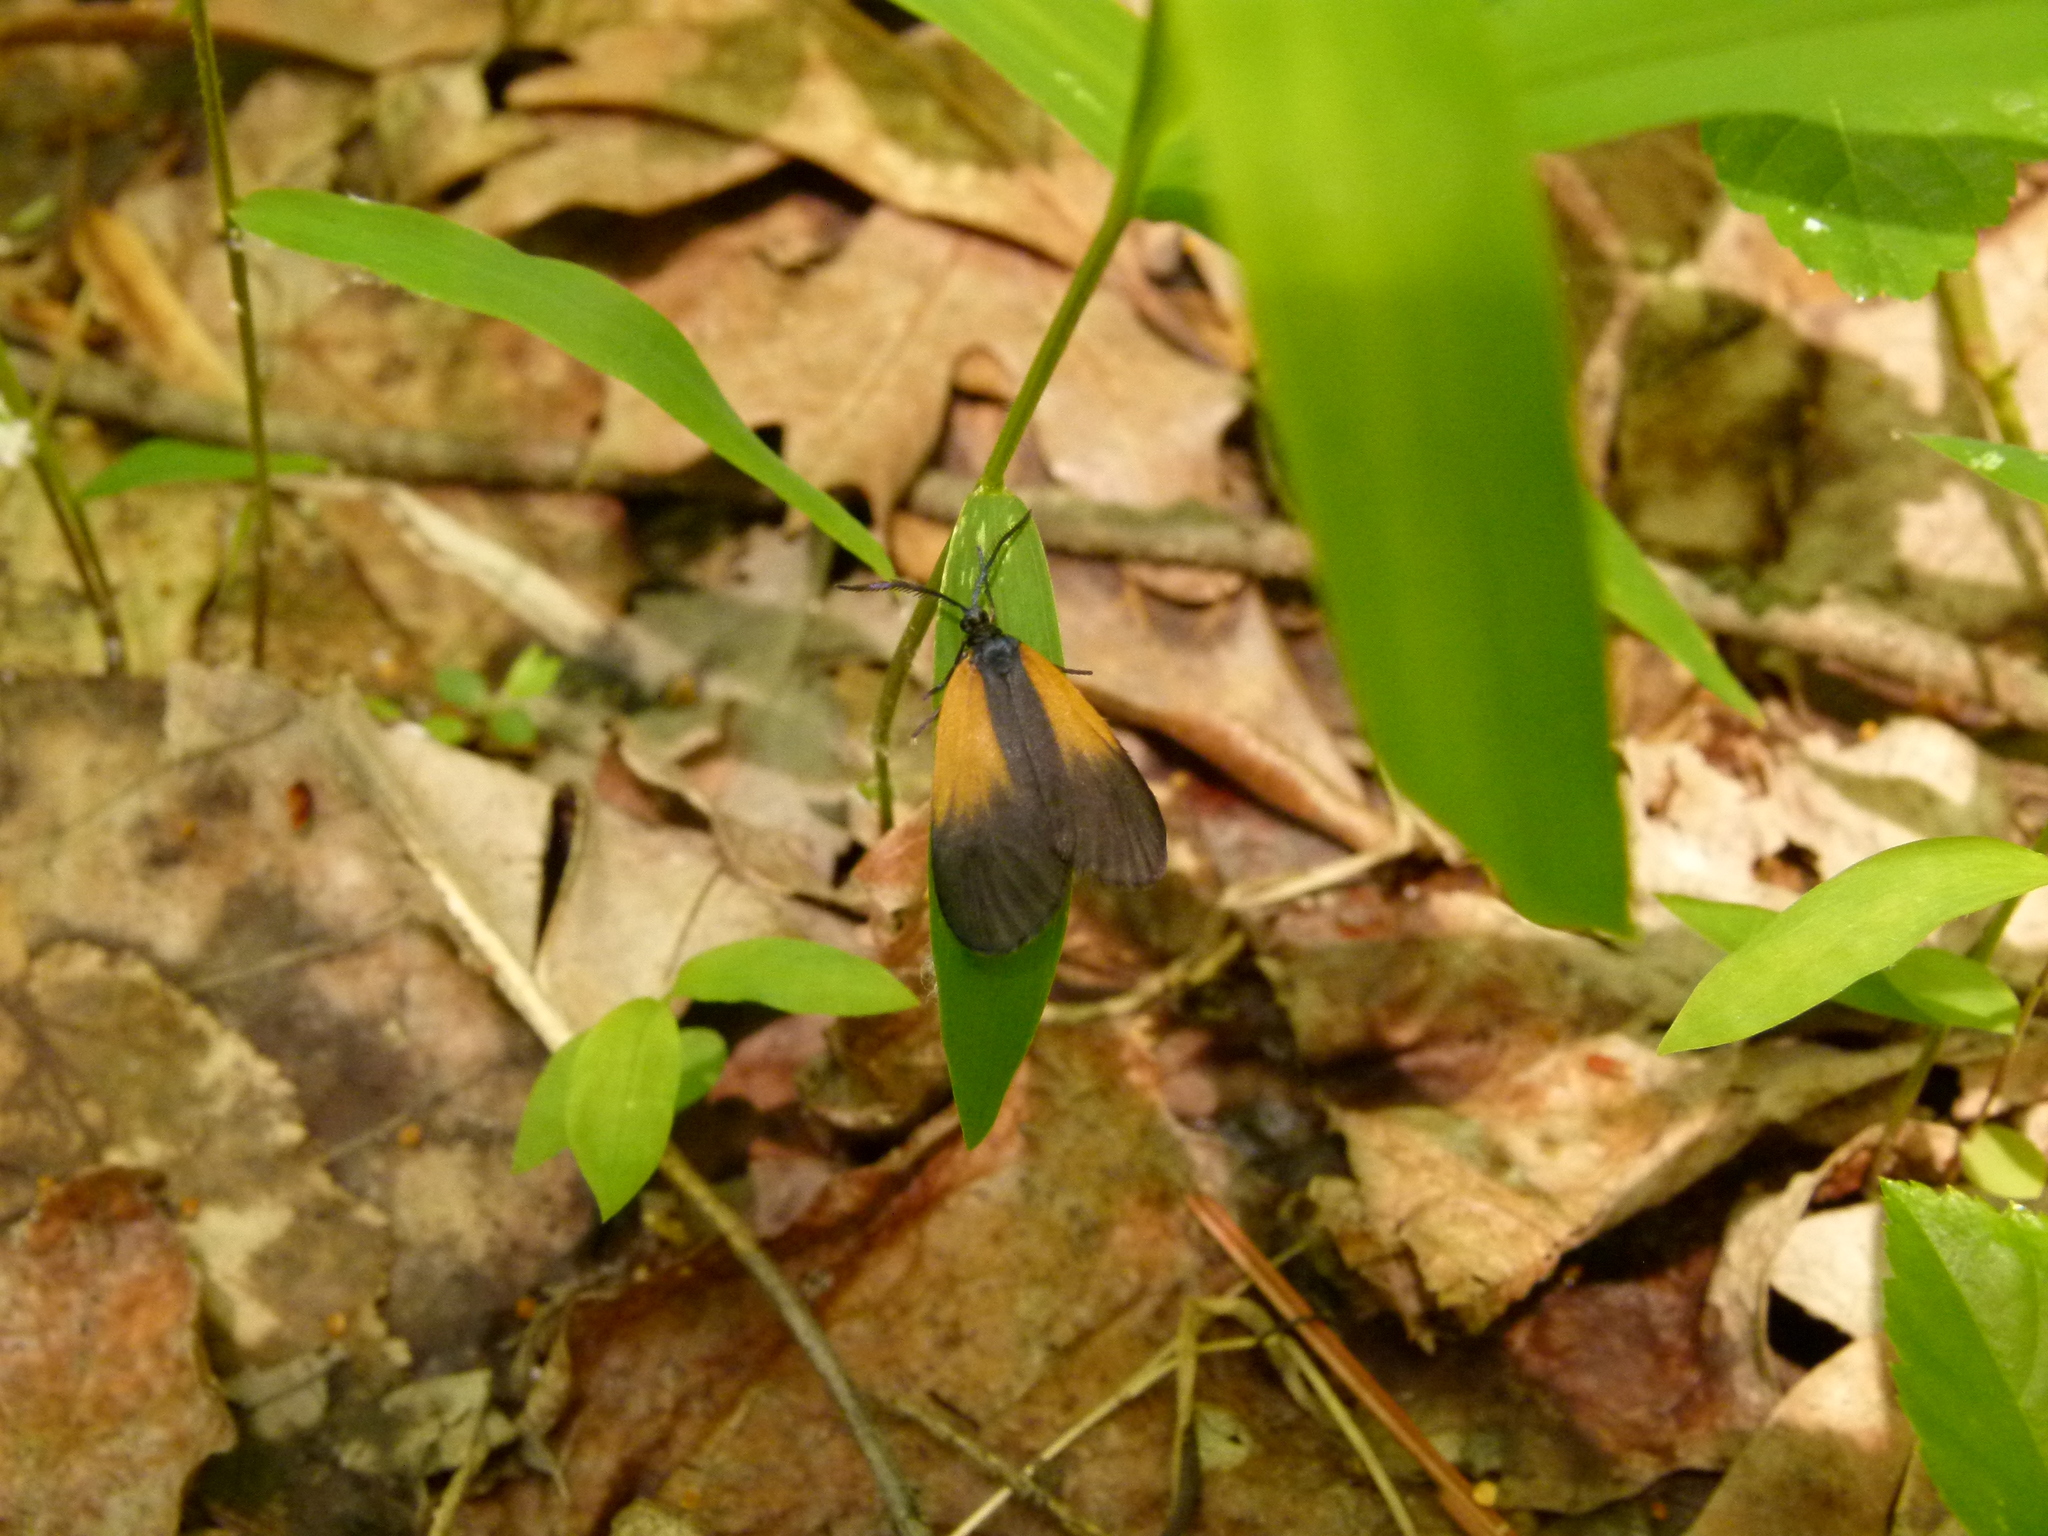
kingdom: Animalia
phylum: Arthropoda
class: Insecta
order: Lepidoptera
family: Zygaenidae
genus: Malthaca
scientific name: Malthaca dimidiata
